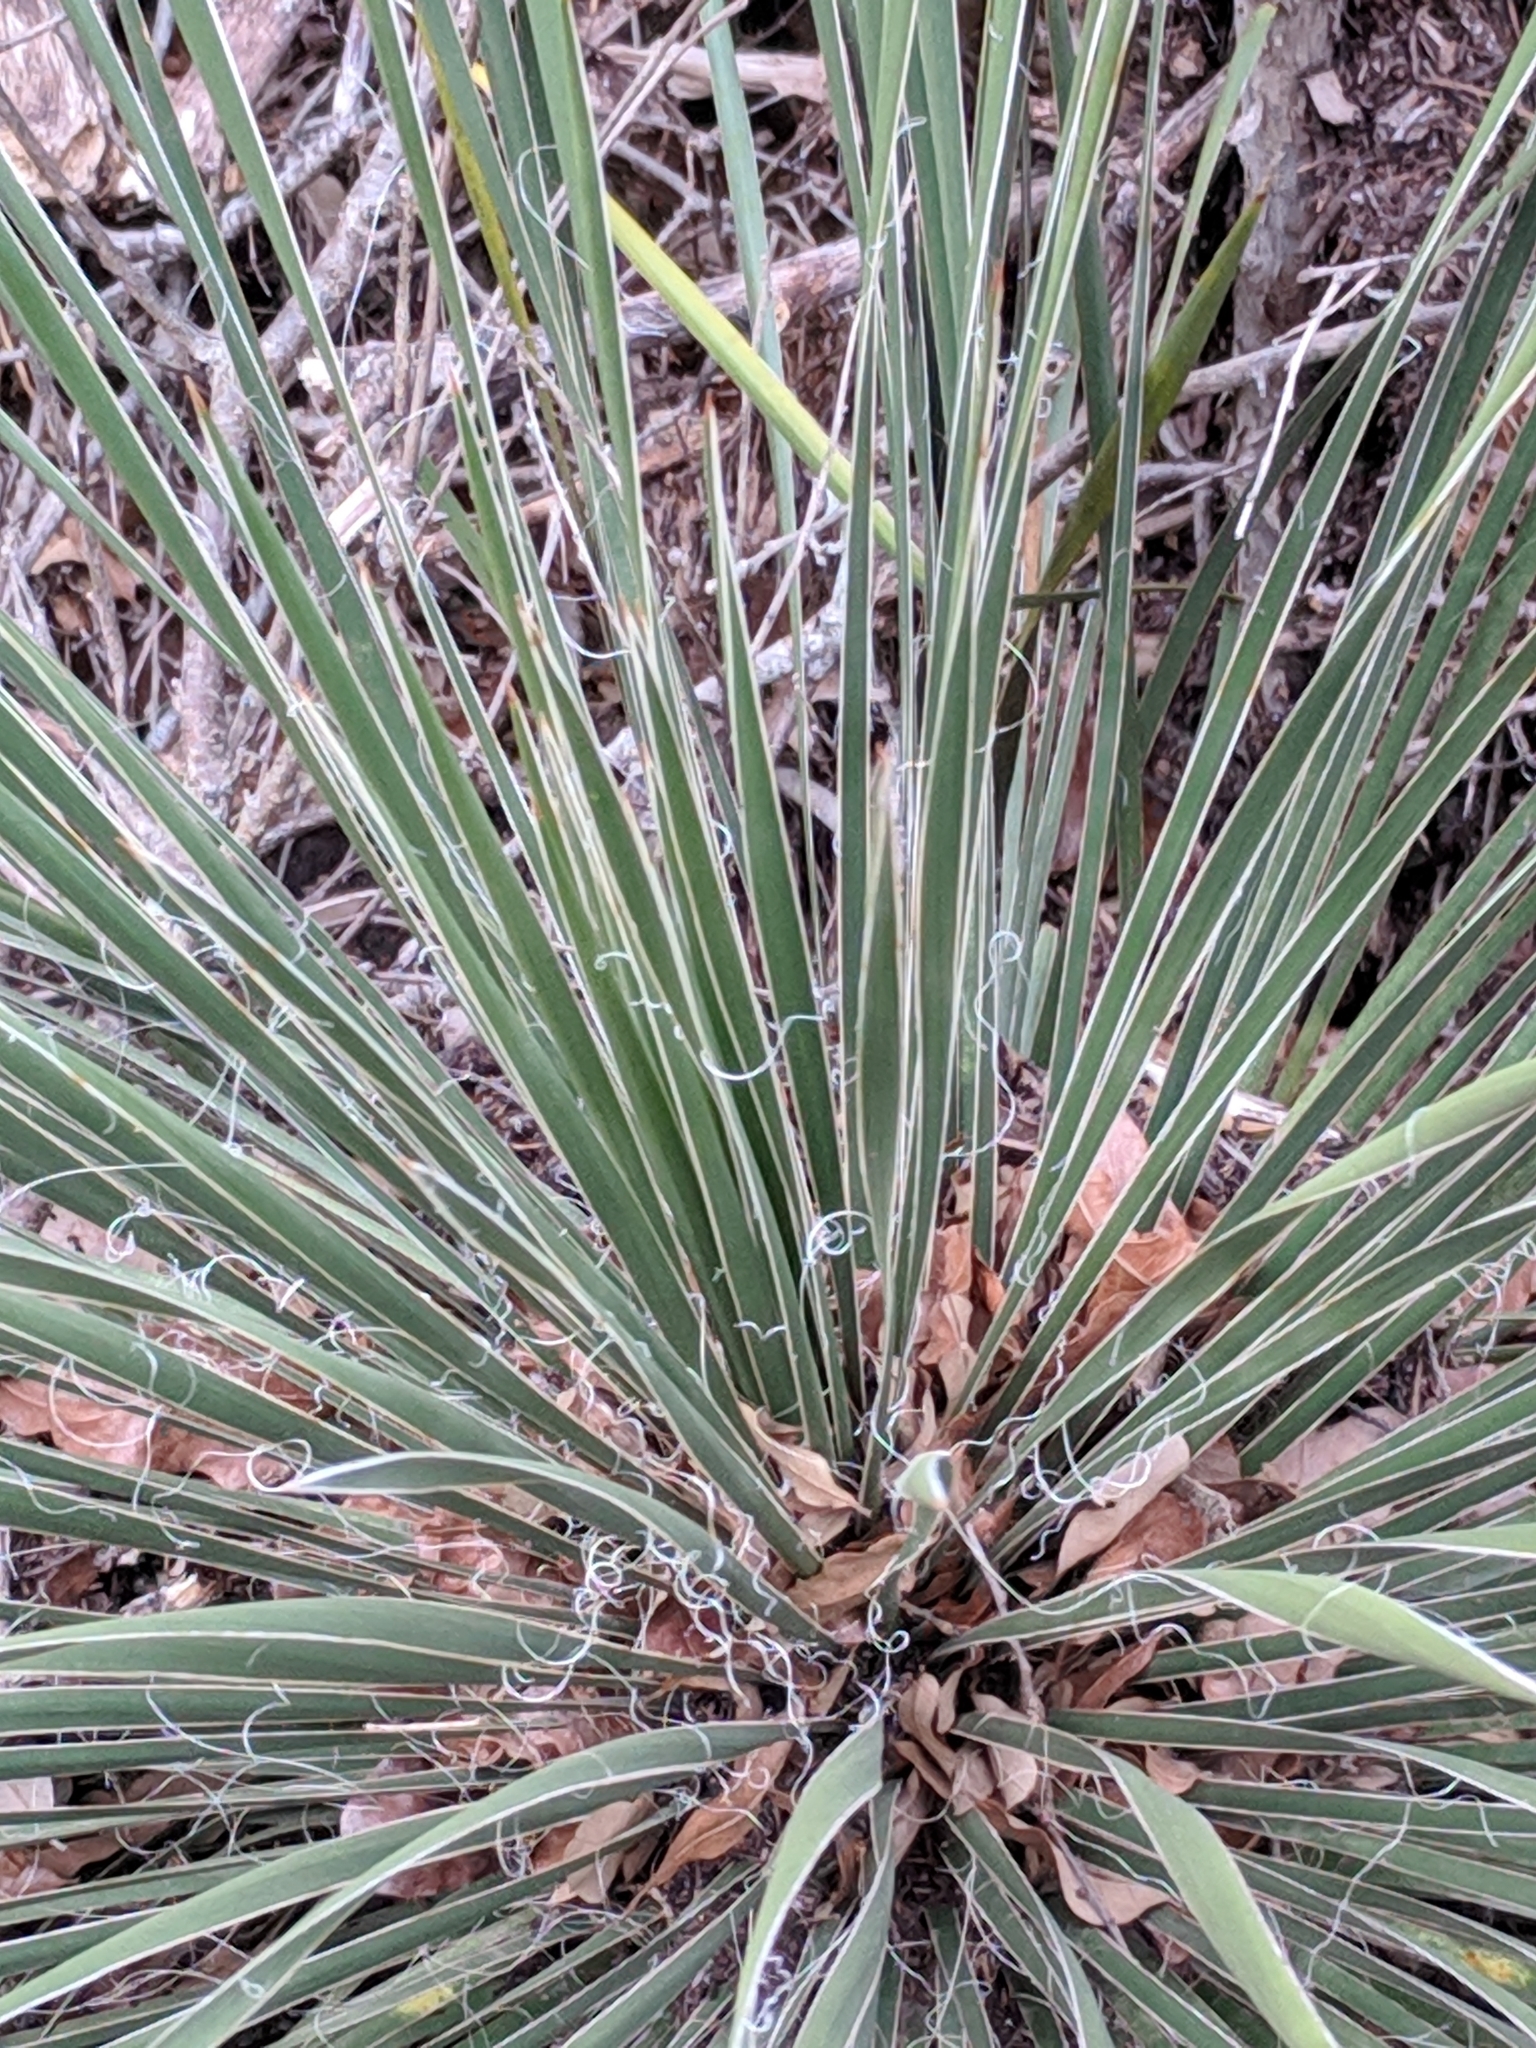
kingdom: Plantae
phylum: Tracheophyta
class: Liliopsida
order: Asparagales
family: Asparagaceae
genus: Yucca
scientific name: Yucca constricta
